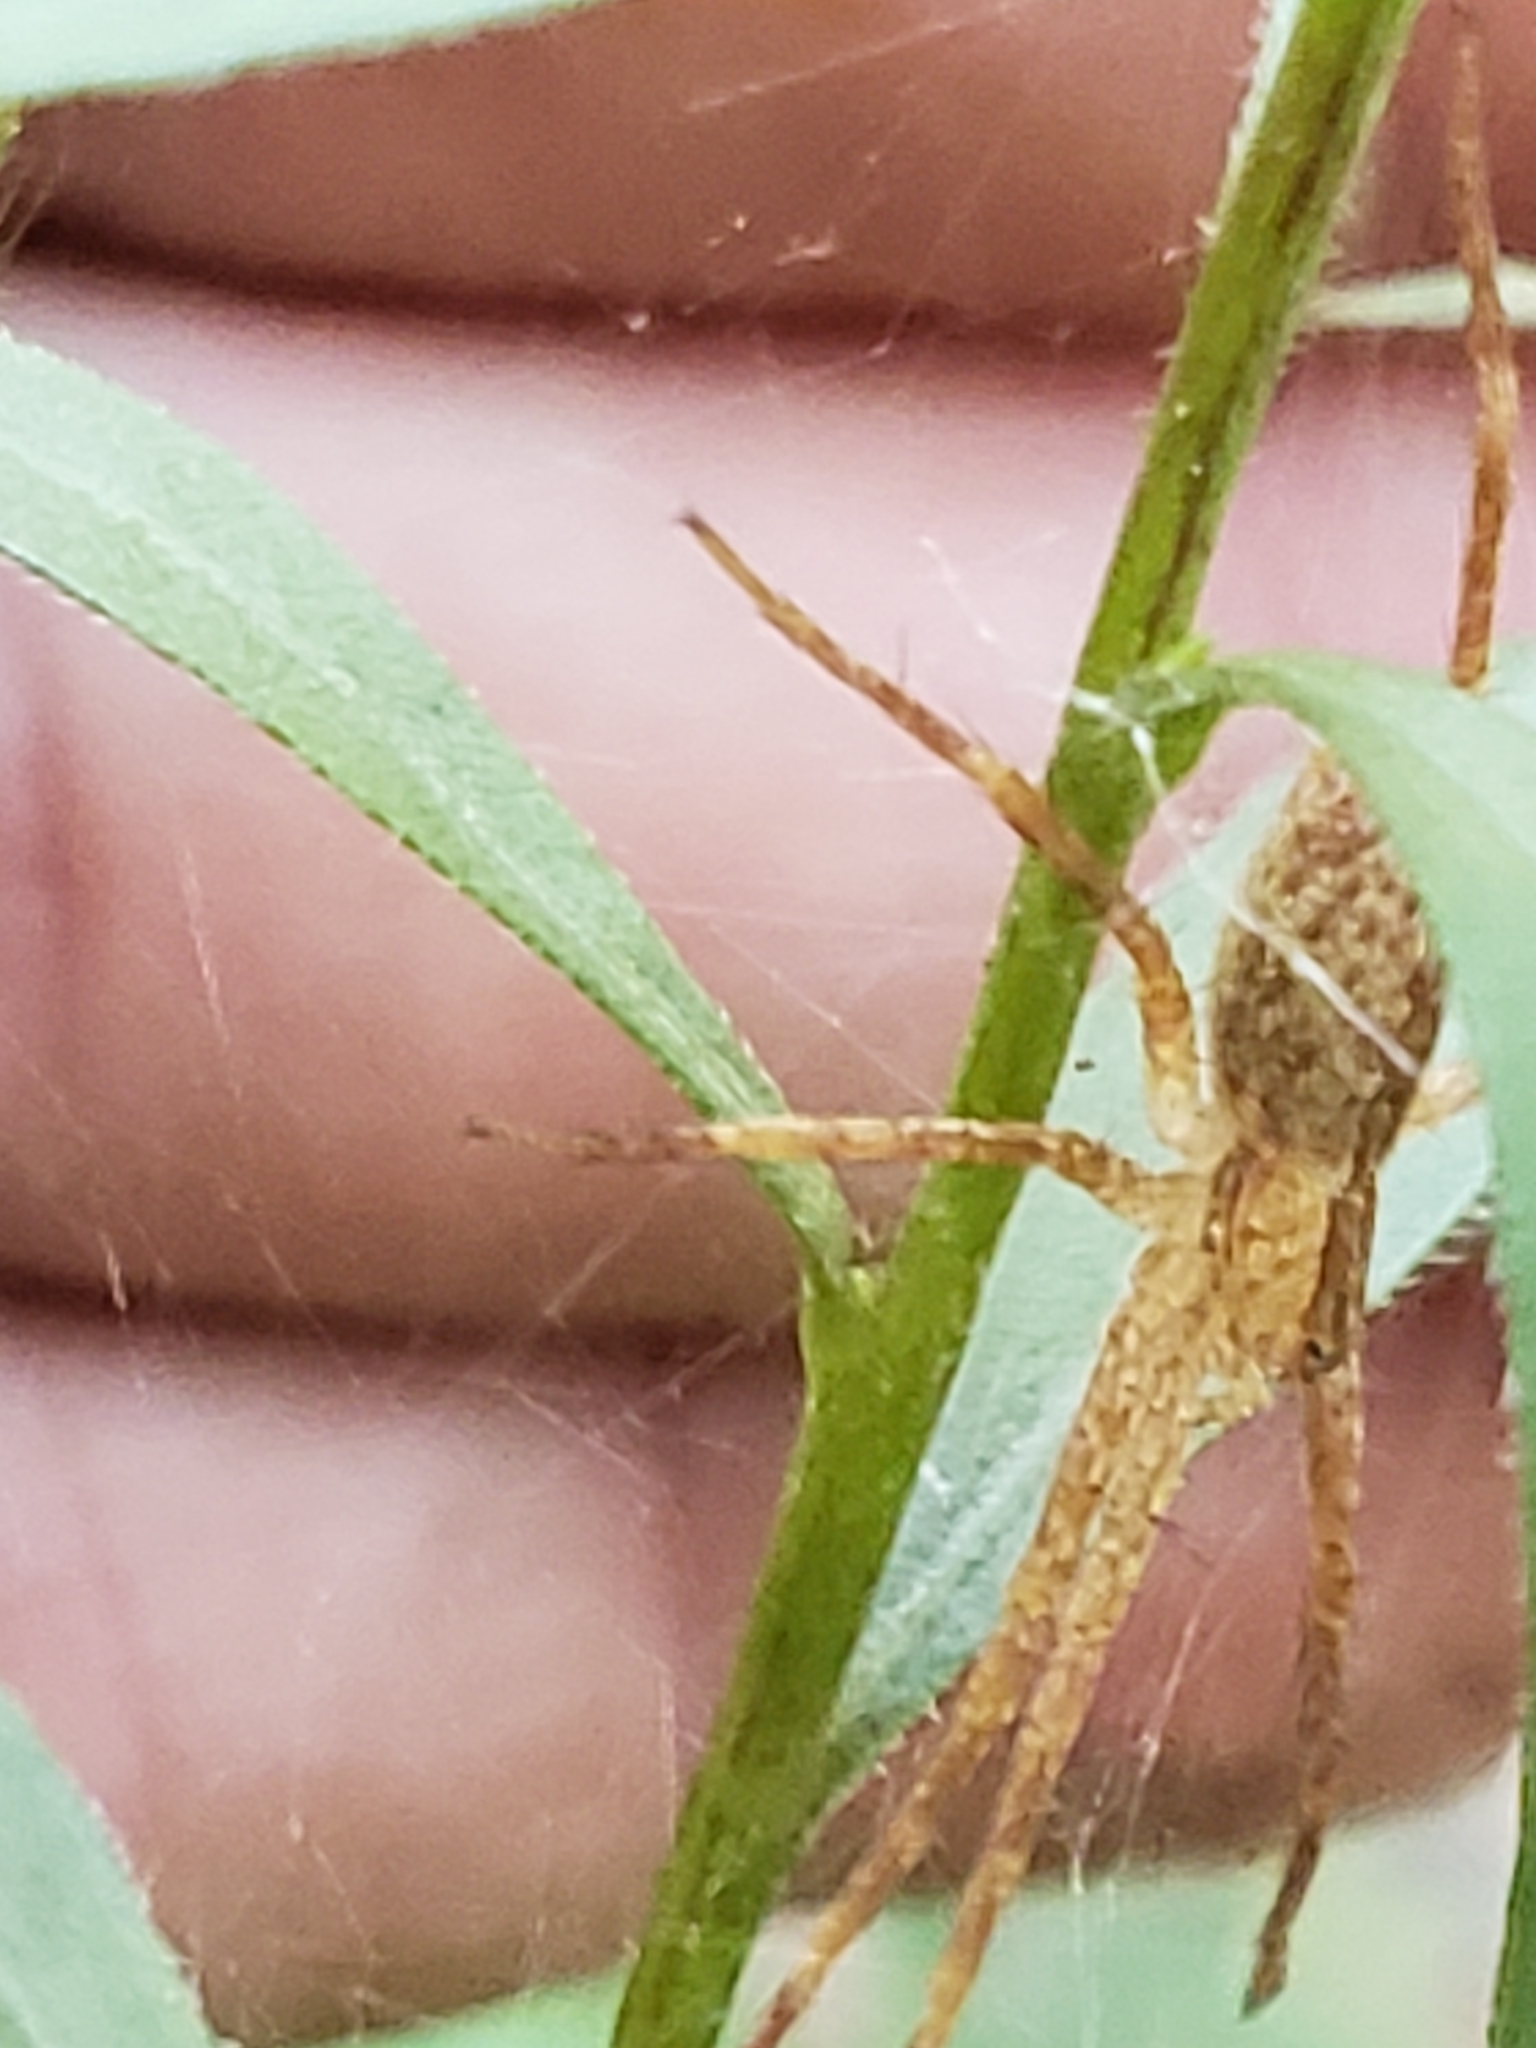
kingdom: Animalia
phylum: Arthropoda
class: Arachnida
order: Araneae
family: Pisauridae
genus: Pisaurina
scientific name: Pisaurina mira
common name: American nursery web spider
